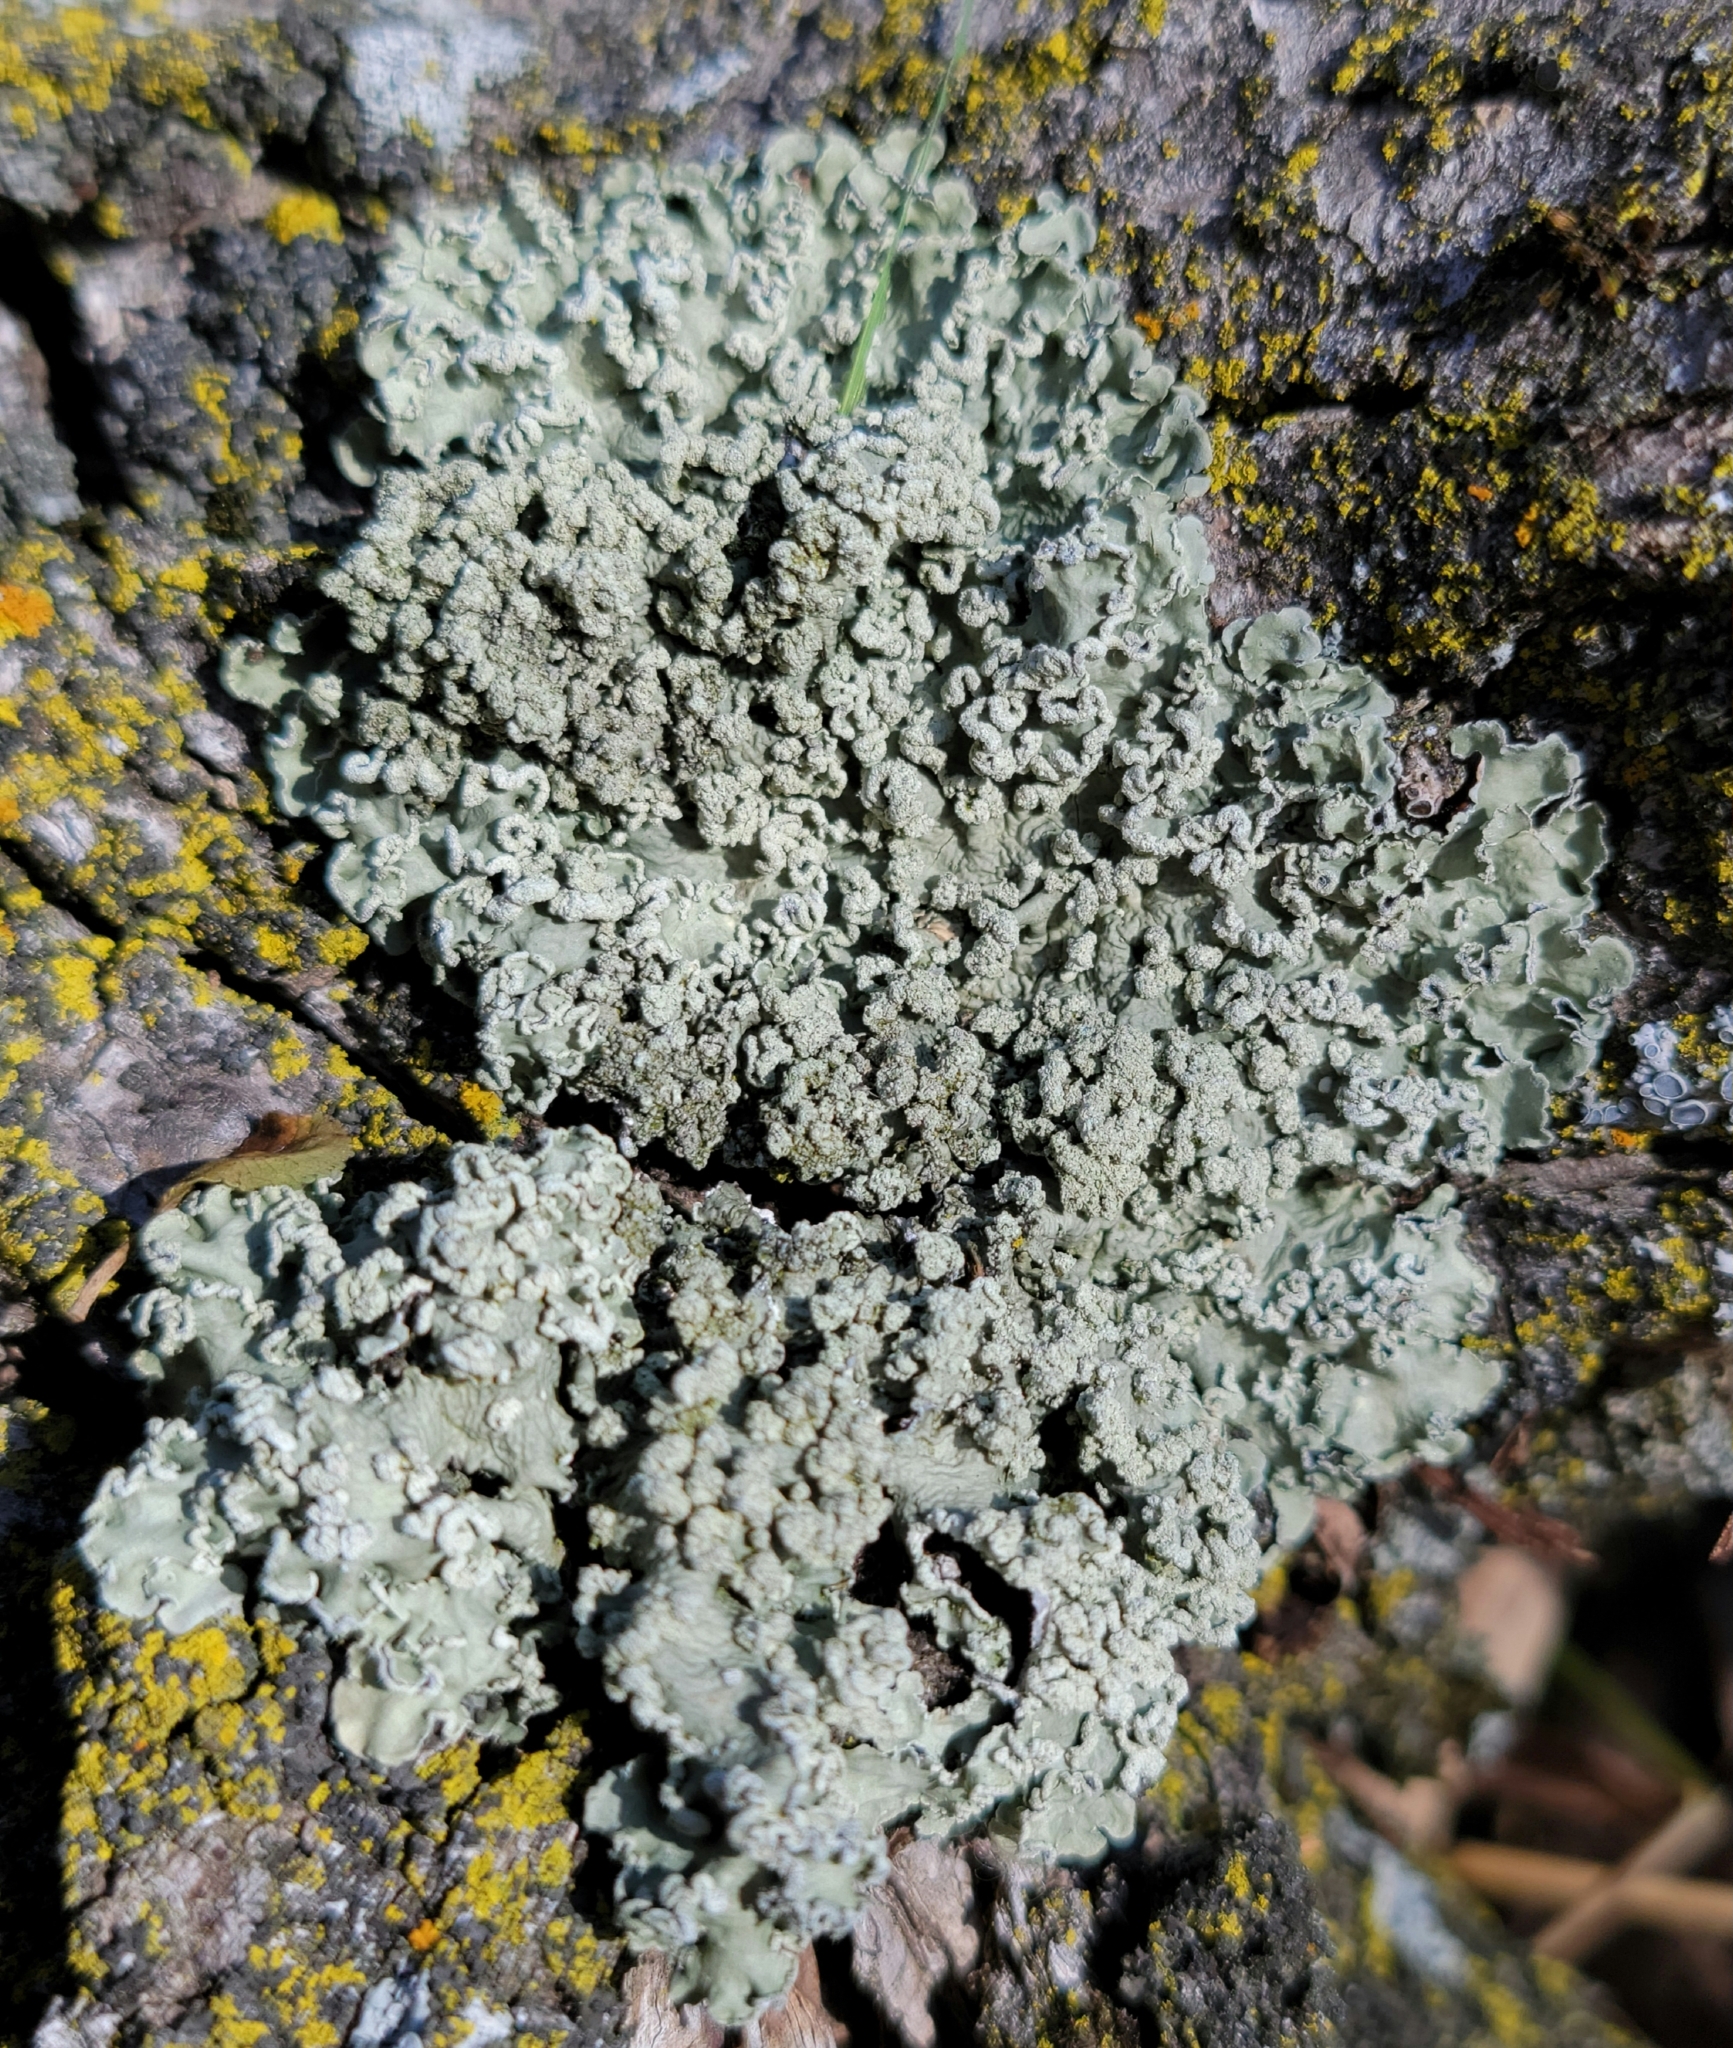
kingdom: Fungi
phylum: Ascomycota
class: Lecanoromycetes
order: Lecanorales
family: Parmeliaceae
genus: Flavopunctelia
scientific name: Flavopunctelia soredica
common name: Powder-edged speckled greenshield
